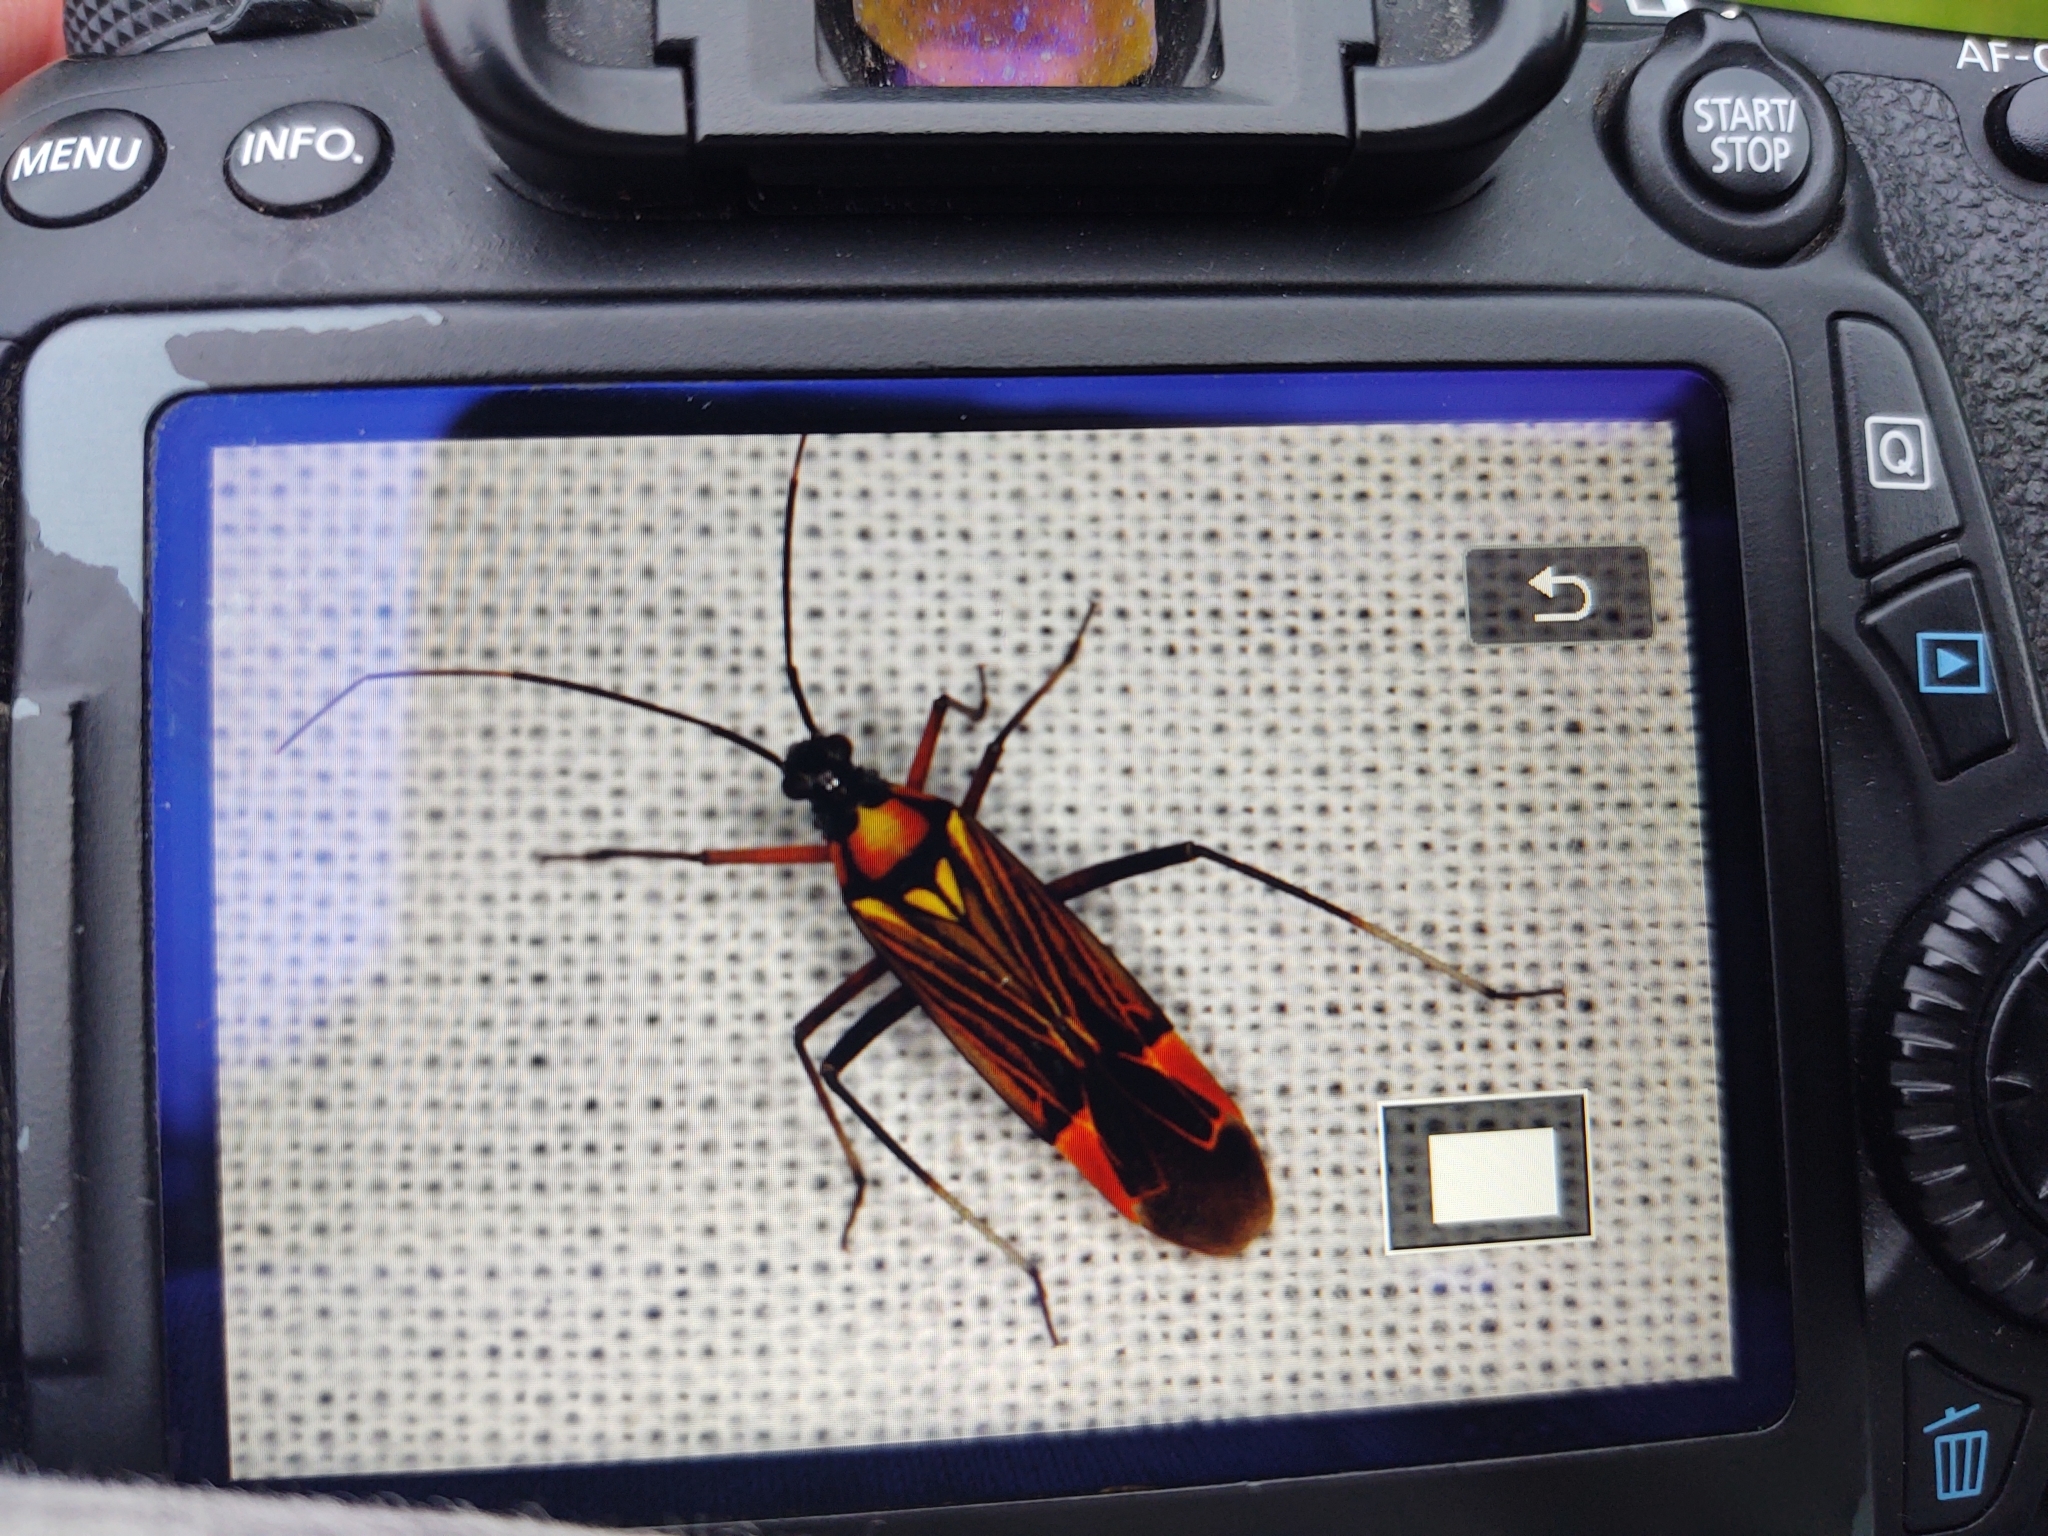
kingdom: Animalia
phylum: Arthropoda
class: Insecta
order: Hemiptera
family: Miridae
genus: Miris
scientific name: Miris striatus
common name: Fine streaked bugkin
